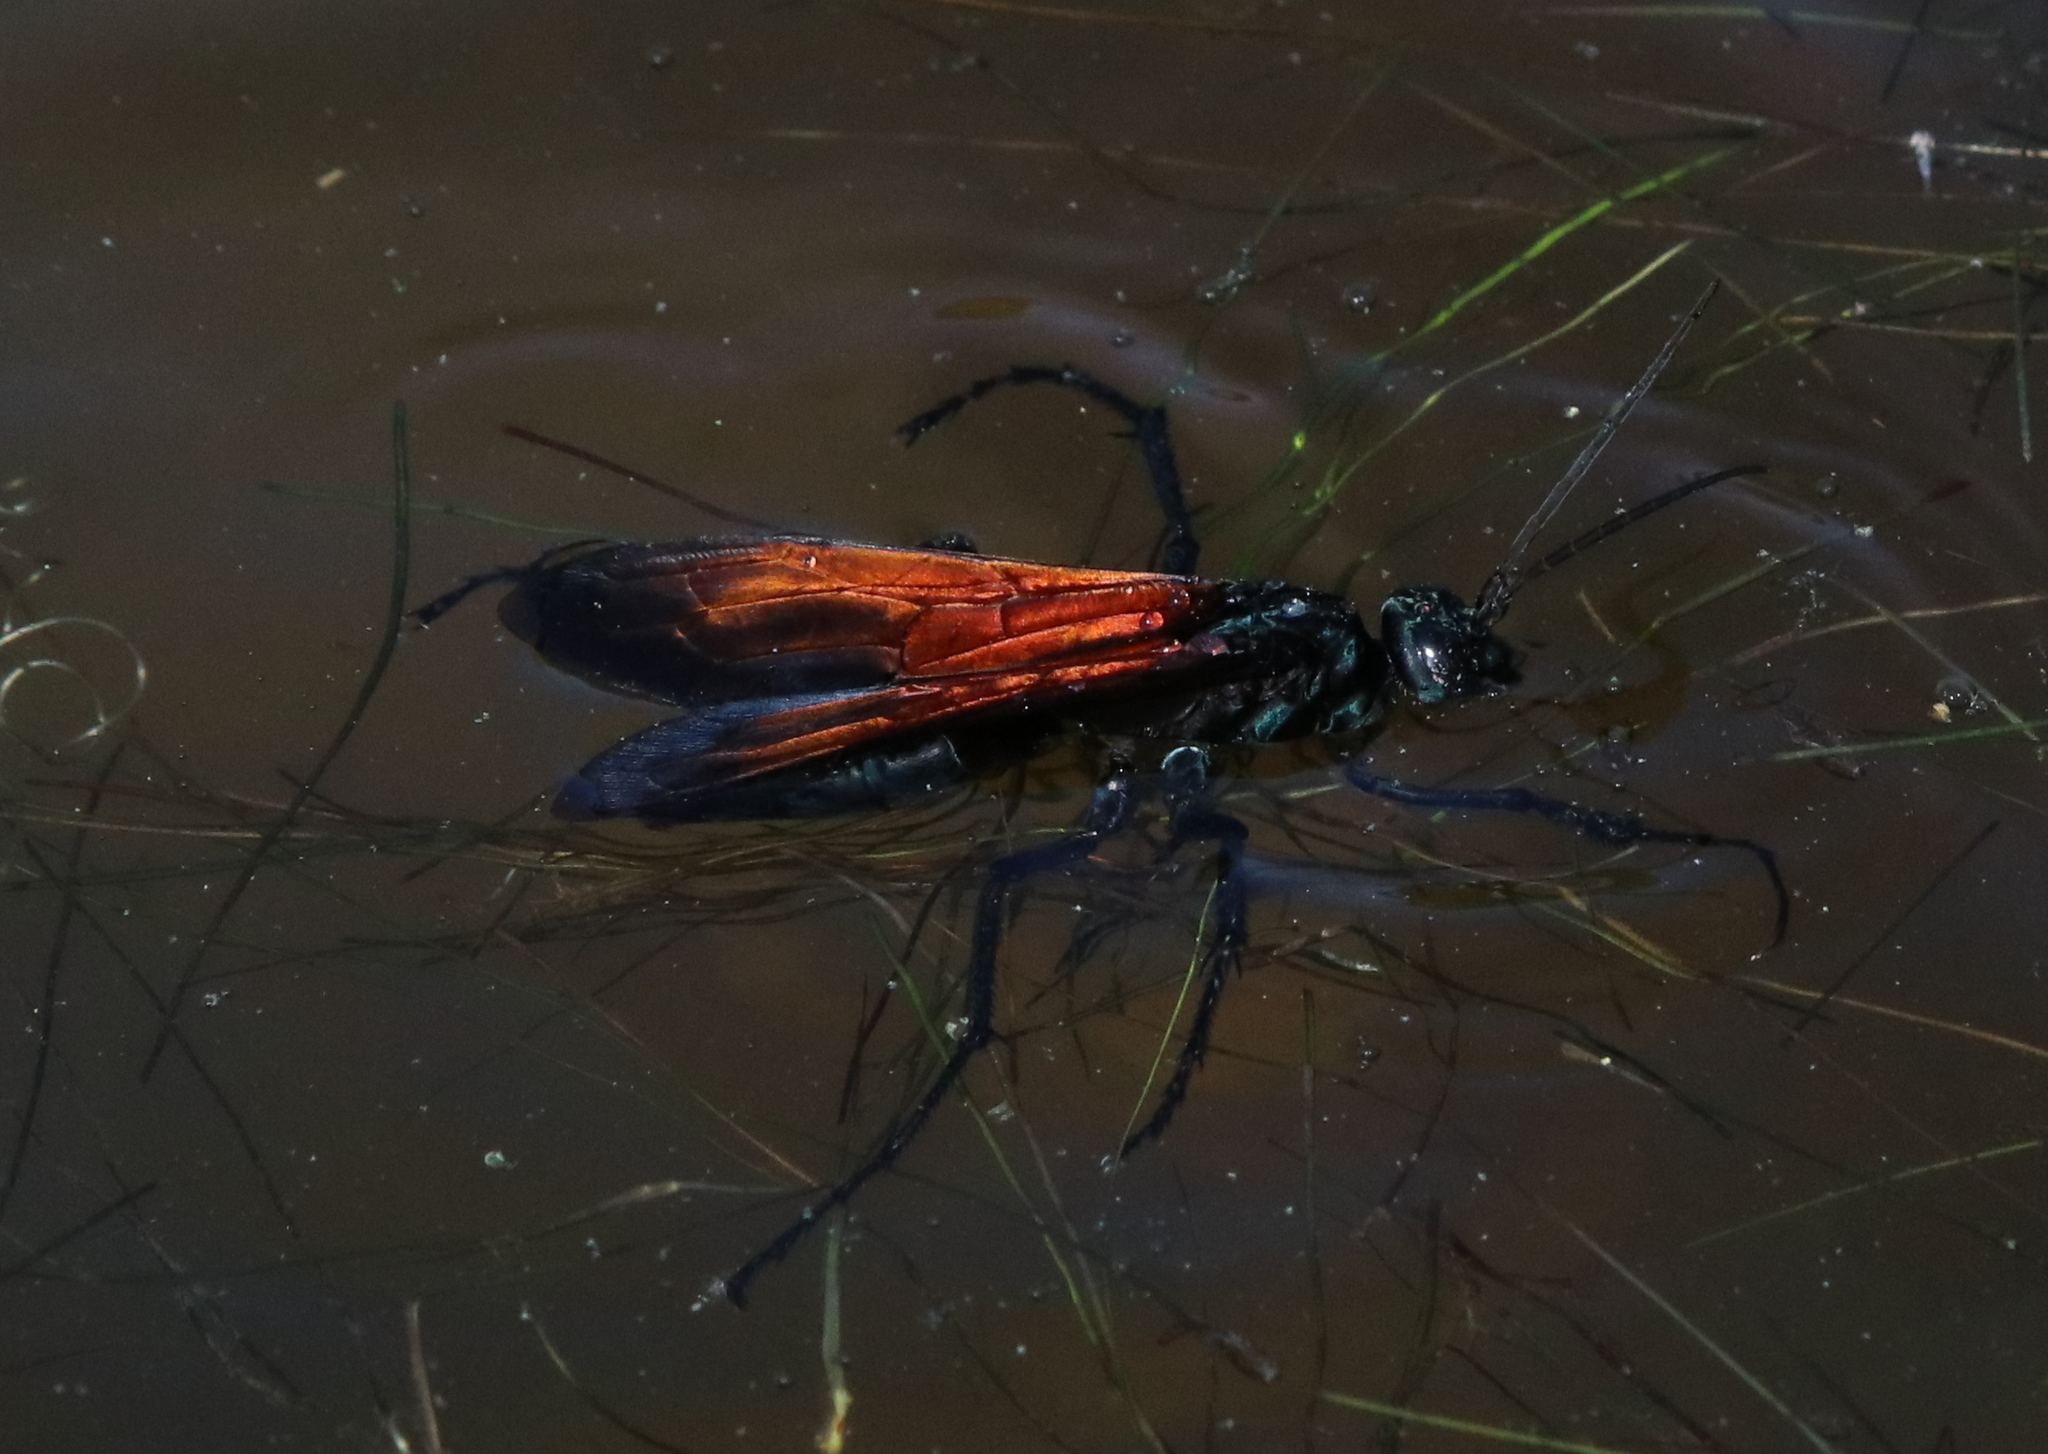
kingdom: Animalia
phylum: Arthropoda
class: Insecta
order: Hymenoptera
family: Pompilidae
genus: Pepsis
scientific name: Pepsis grossa
